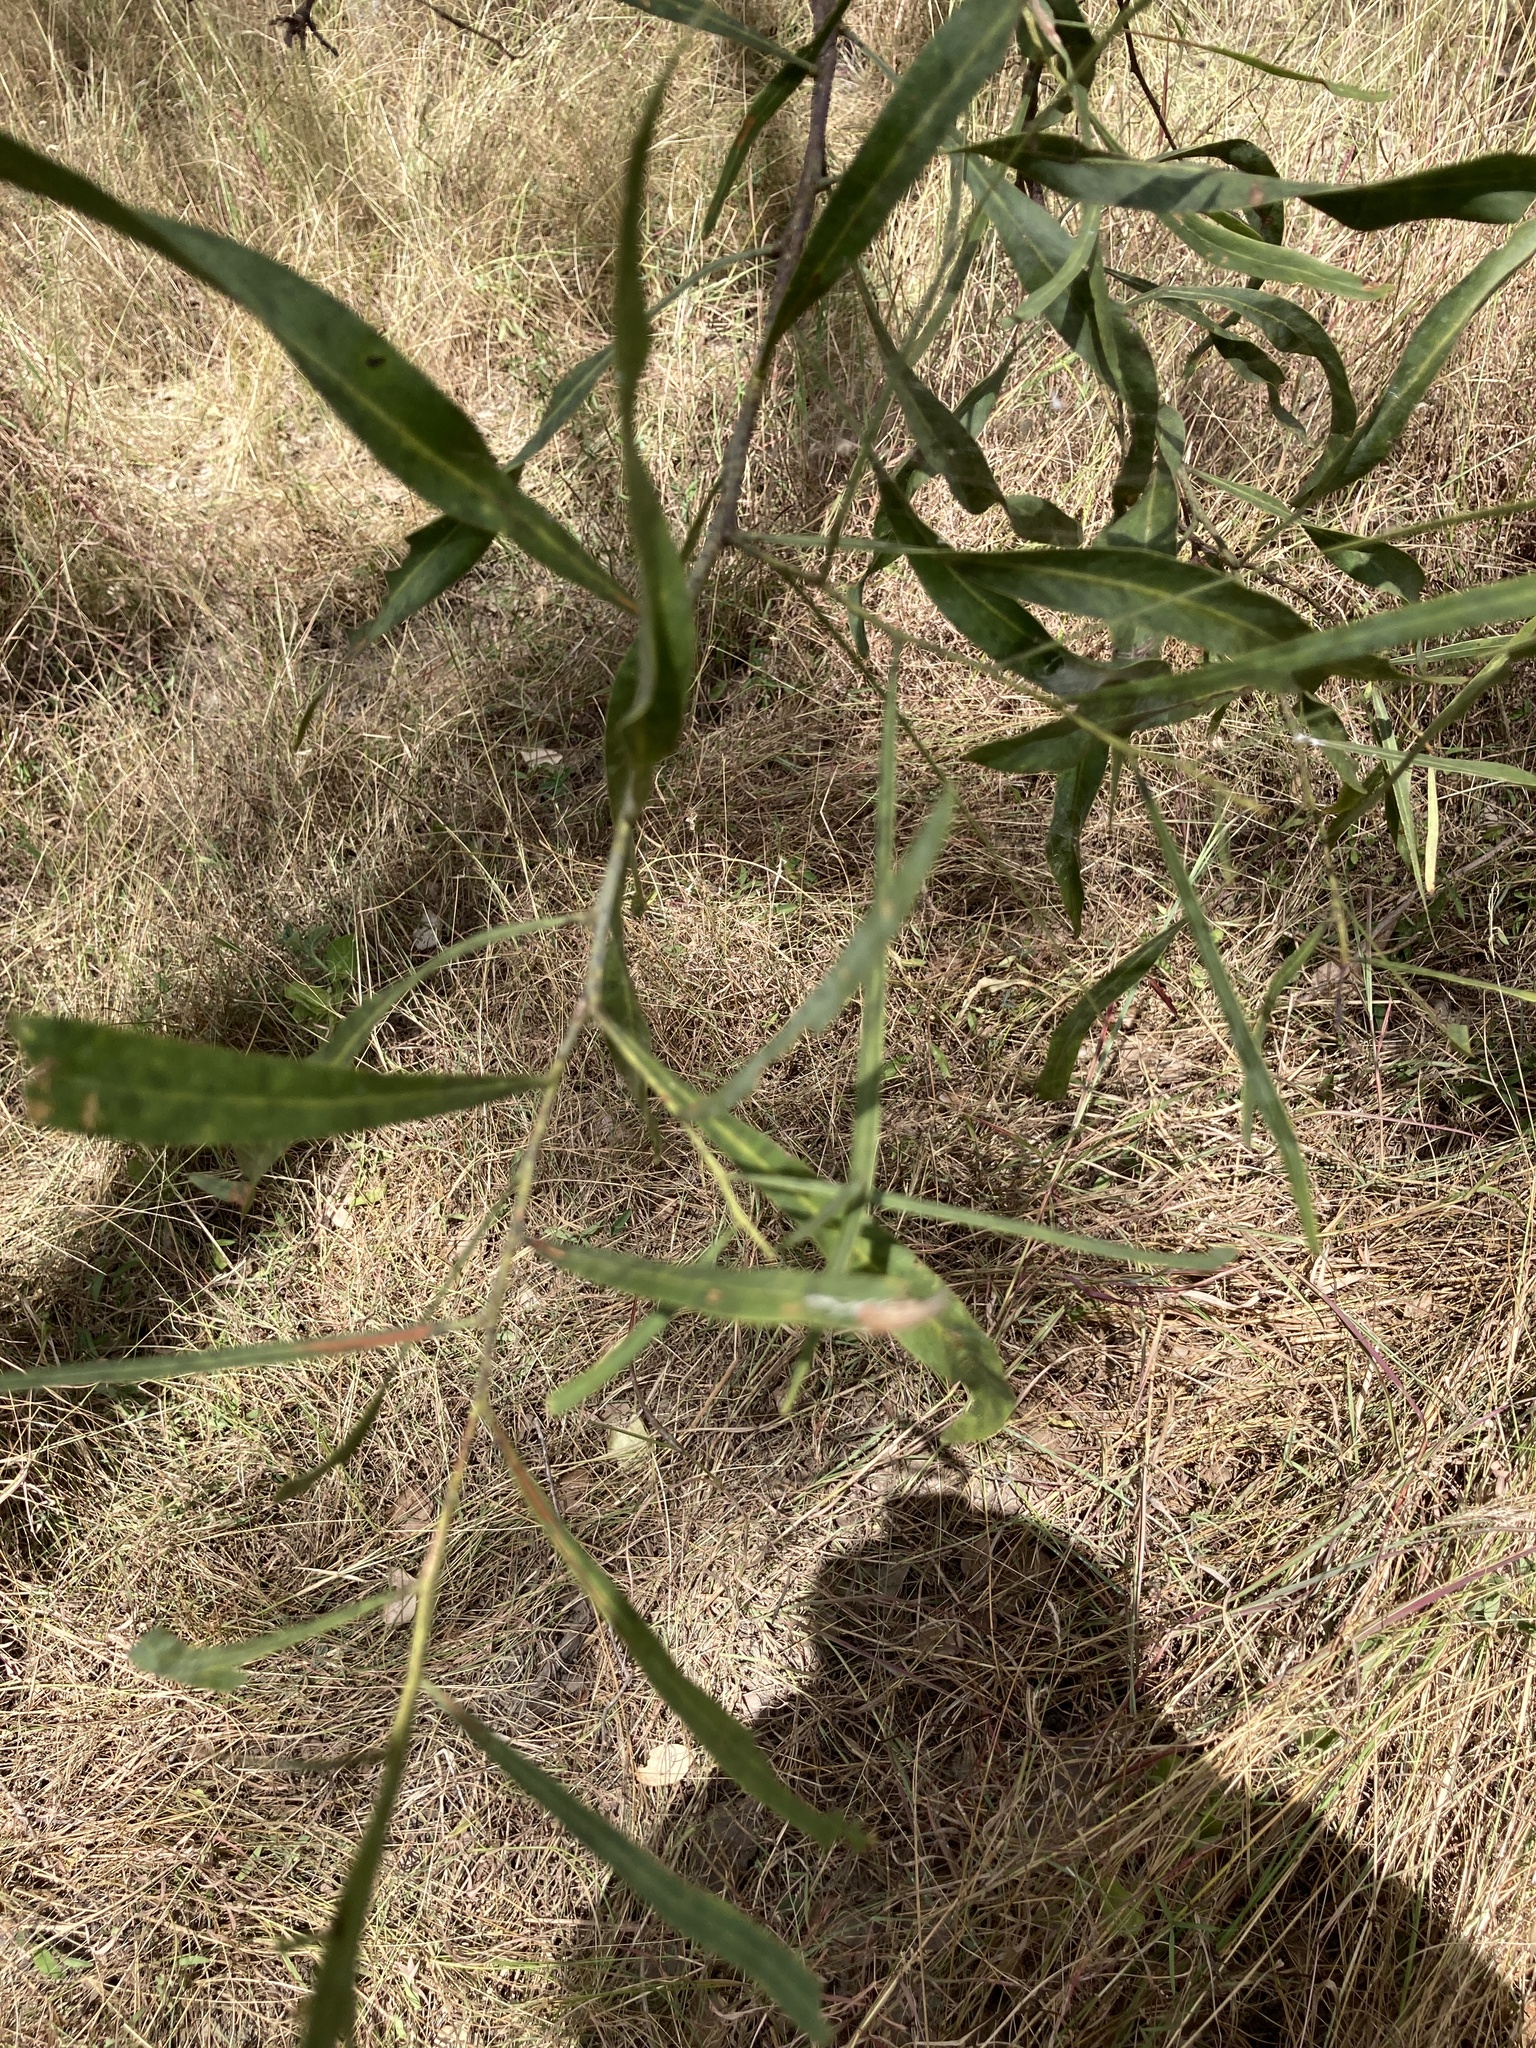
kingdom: Plantae
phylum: Tracheophyta
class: Magnoliopsida
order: Fabales
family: Fabaceae
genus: Acacia
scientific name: Acacia salicina
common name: Broughton willow wattle
